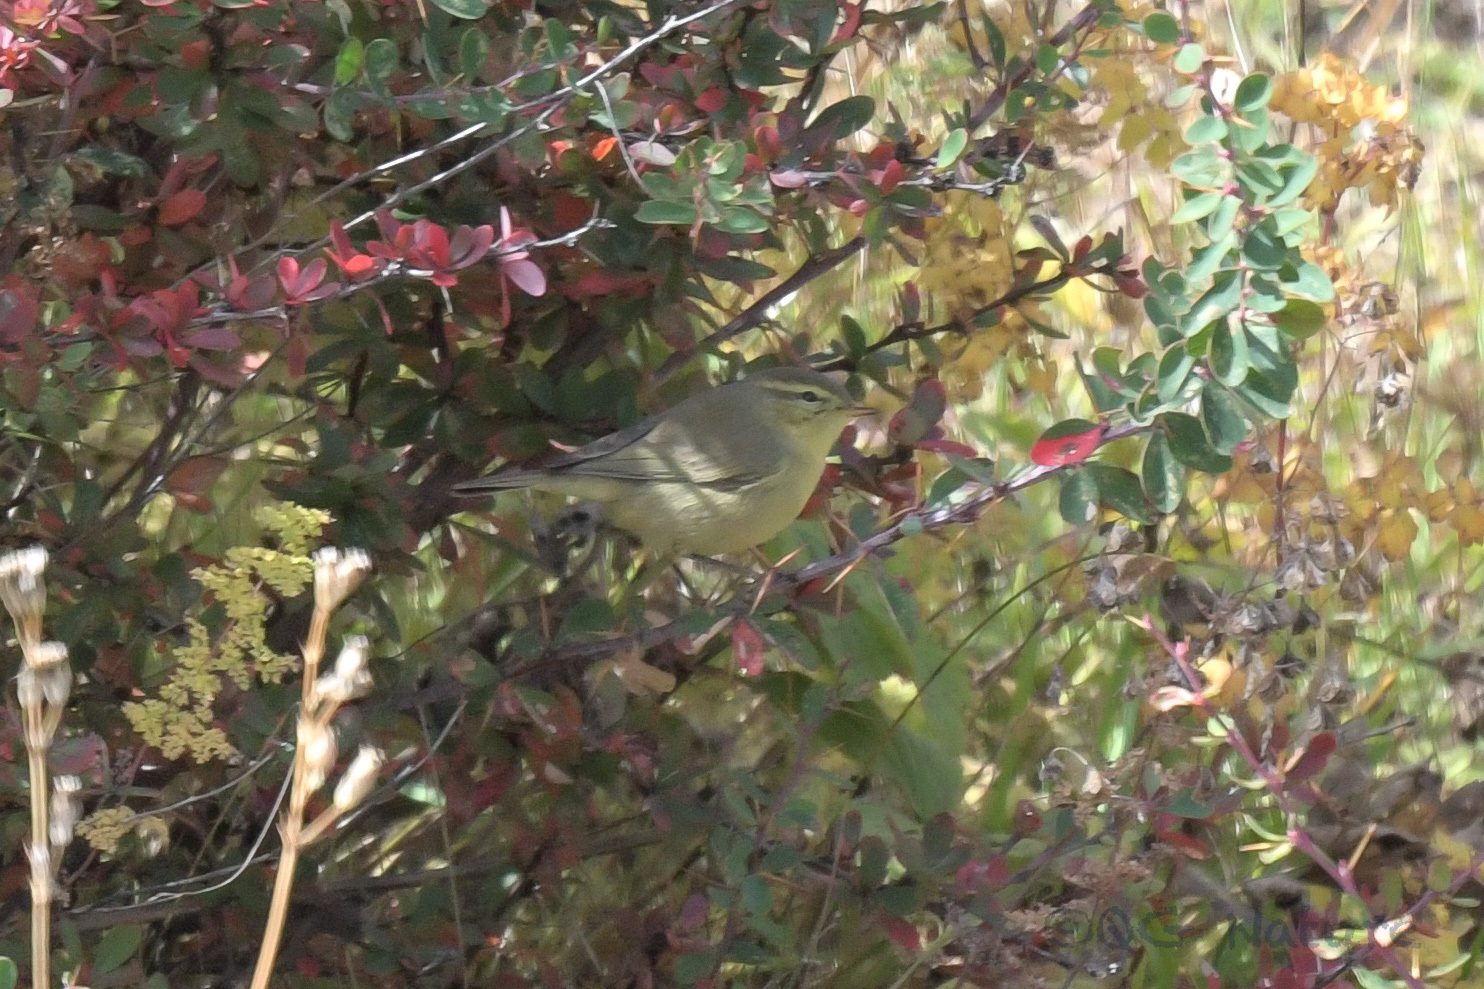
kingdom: Animalia
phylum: Chordata
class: Aves
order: Passeriformes
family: Phylloscopidae
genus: Phylloscopus
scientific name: Phylloscopus schwarzi
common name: Radde's warbler
